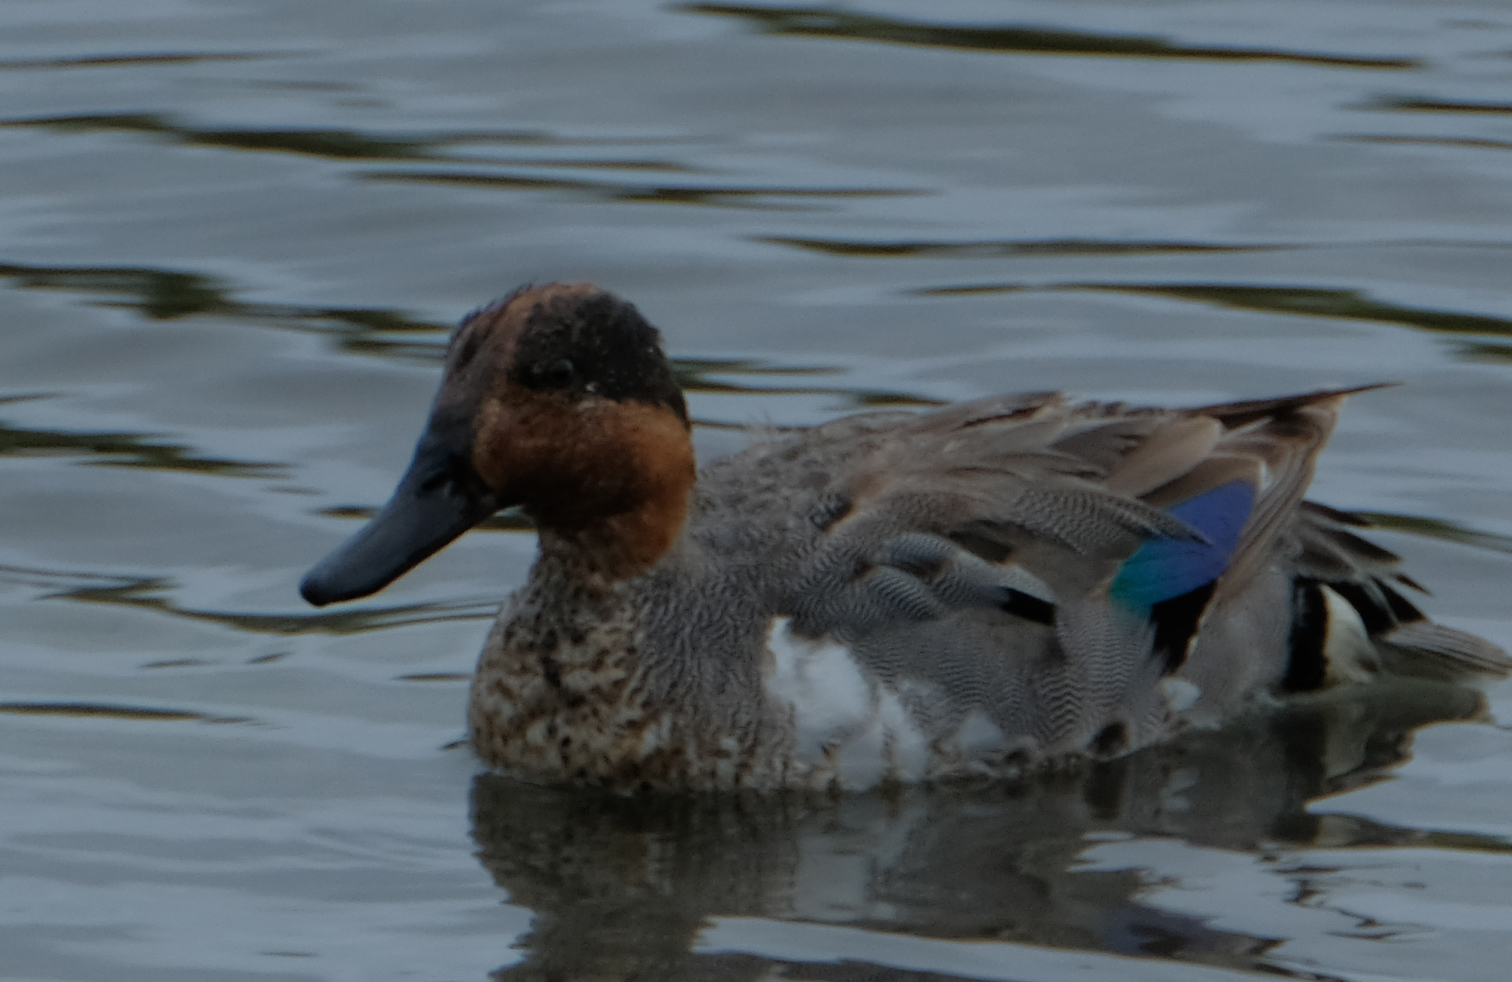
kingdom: Animalia
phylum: Chordata
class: Aves
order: Anseriformes
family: Anatidae
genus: Anas
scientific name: Anas crecca
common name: Eurasian teal
